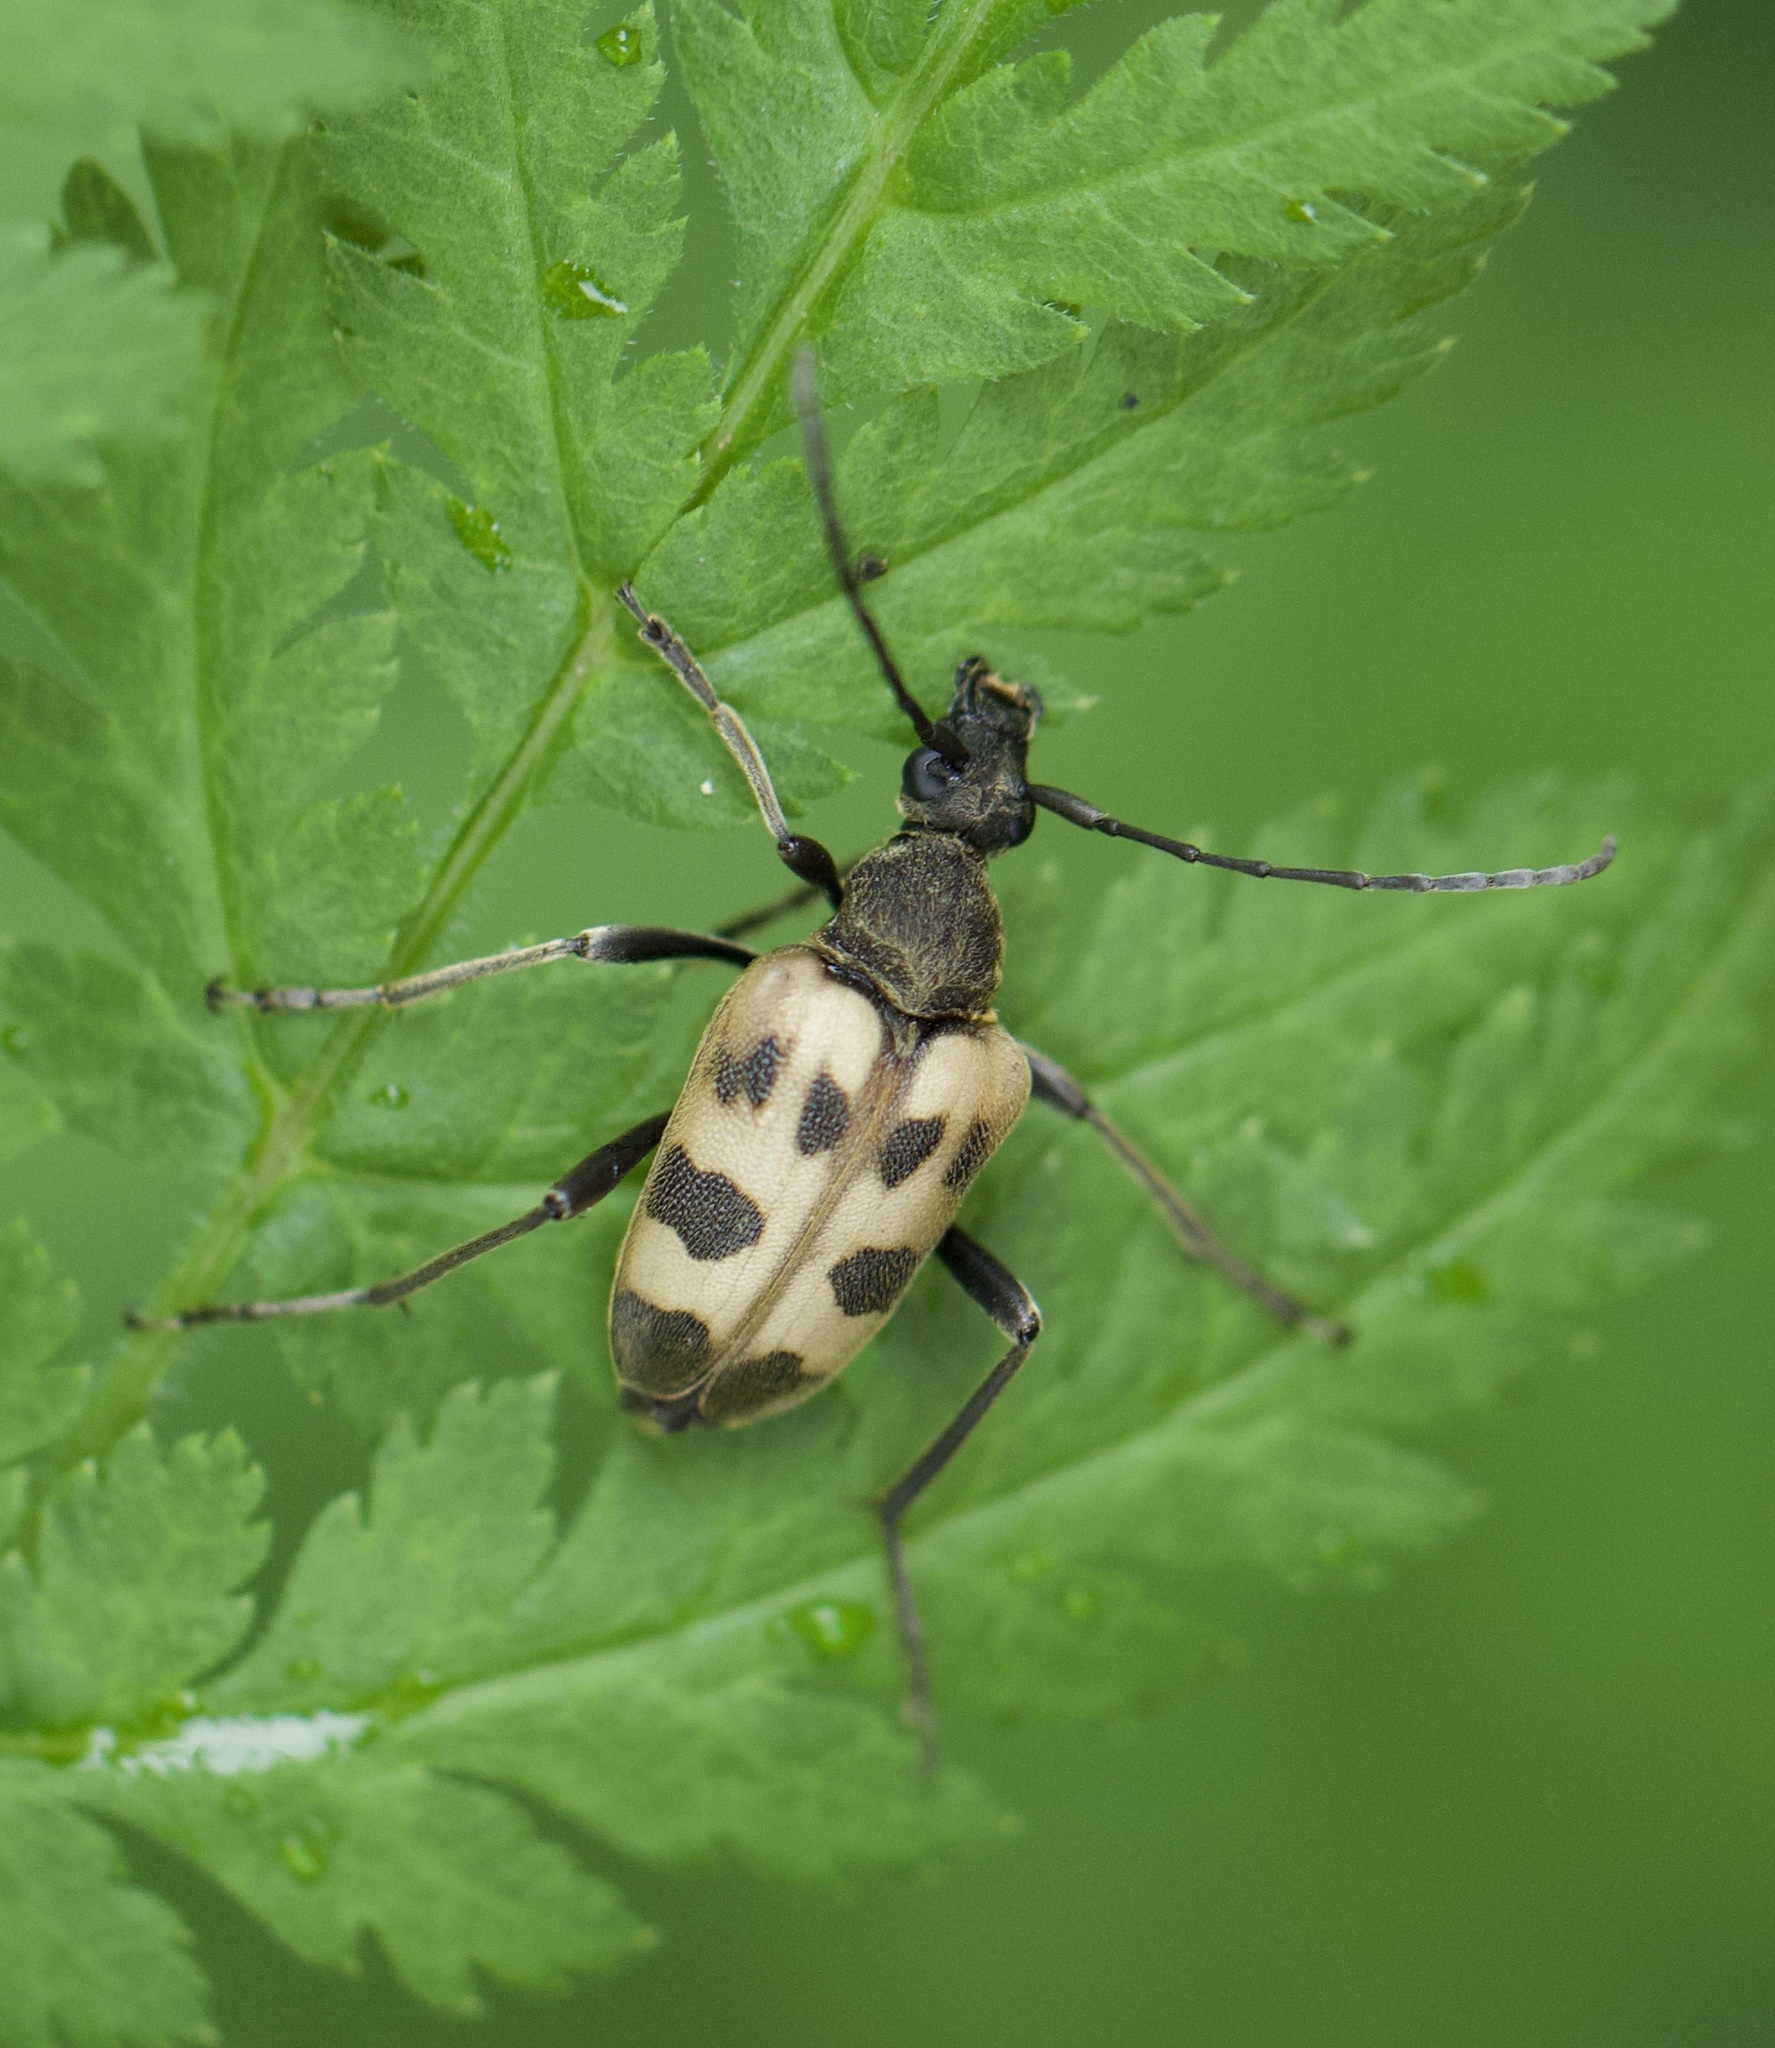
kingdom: Animalia
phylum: Arthropoda
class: Insecta
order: Coleoptera
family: Cerambycidae
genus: Pachytodes
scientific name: Pachytodes cerambyciformis
